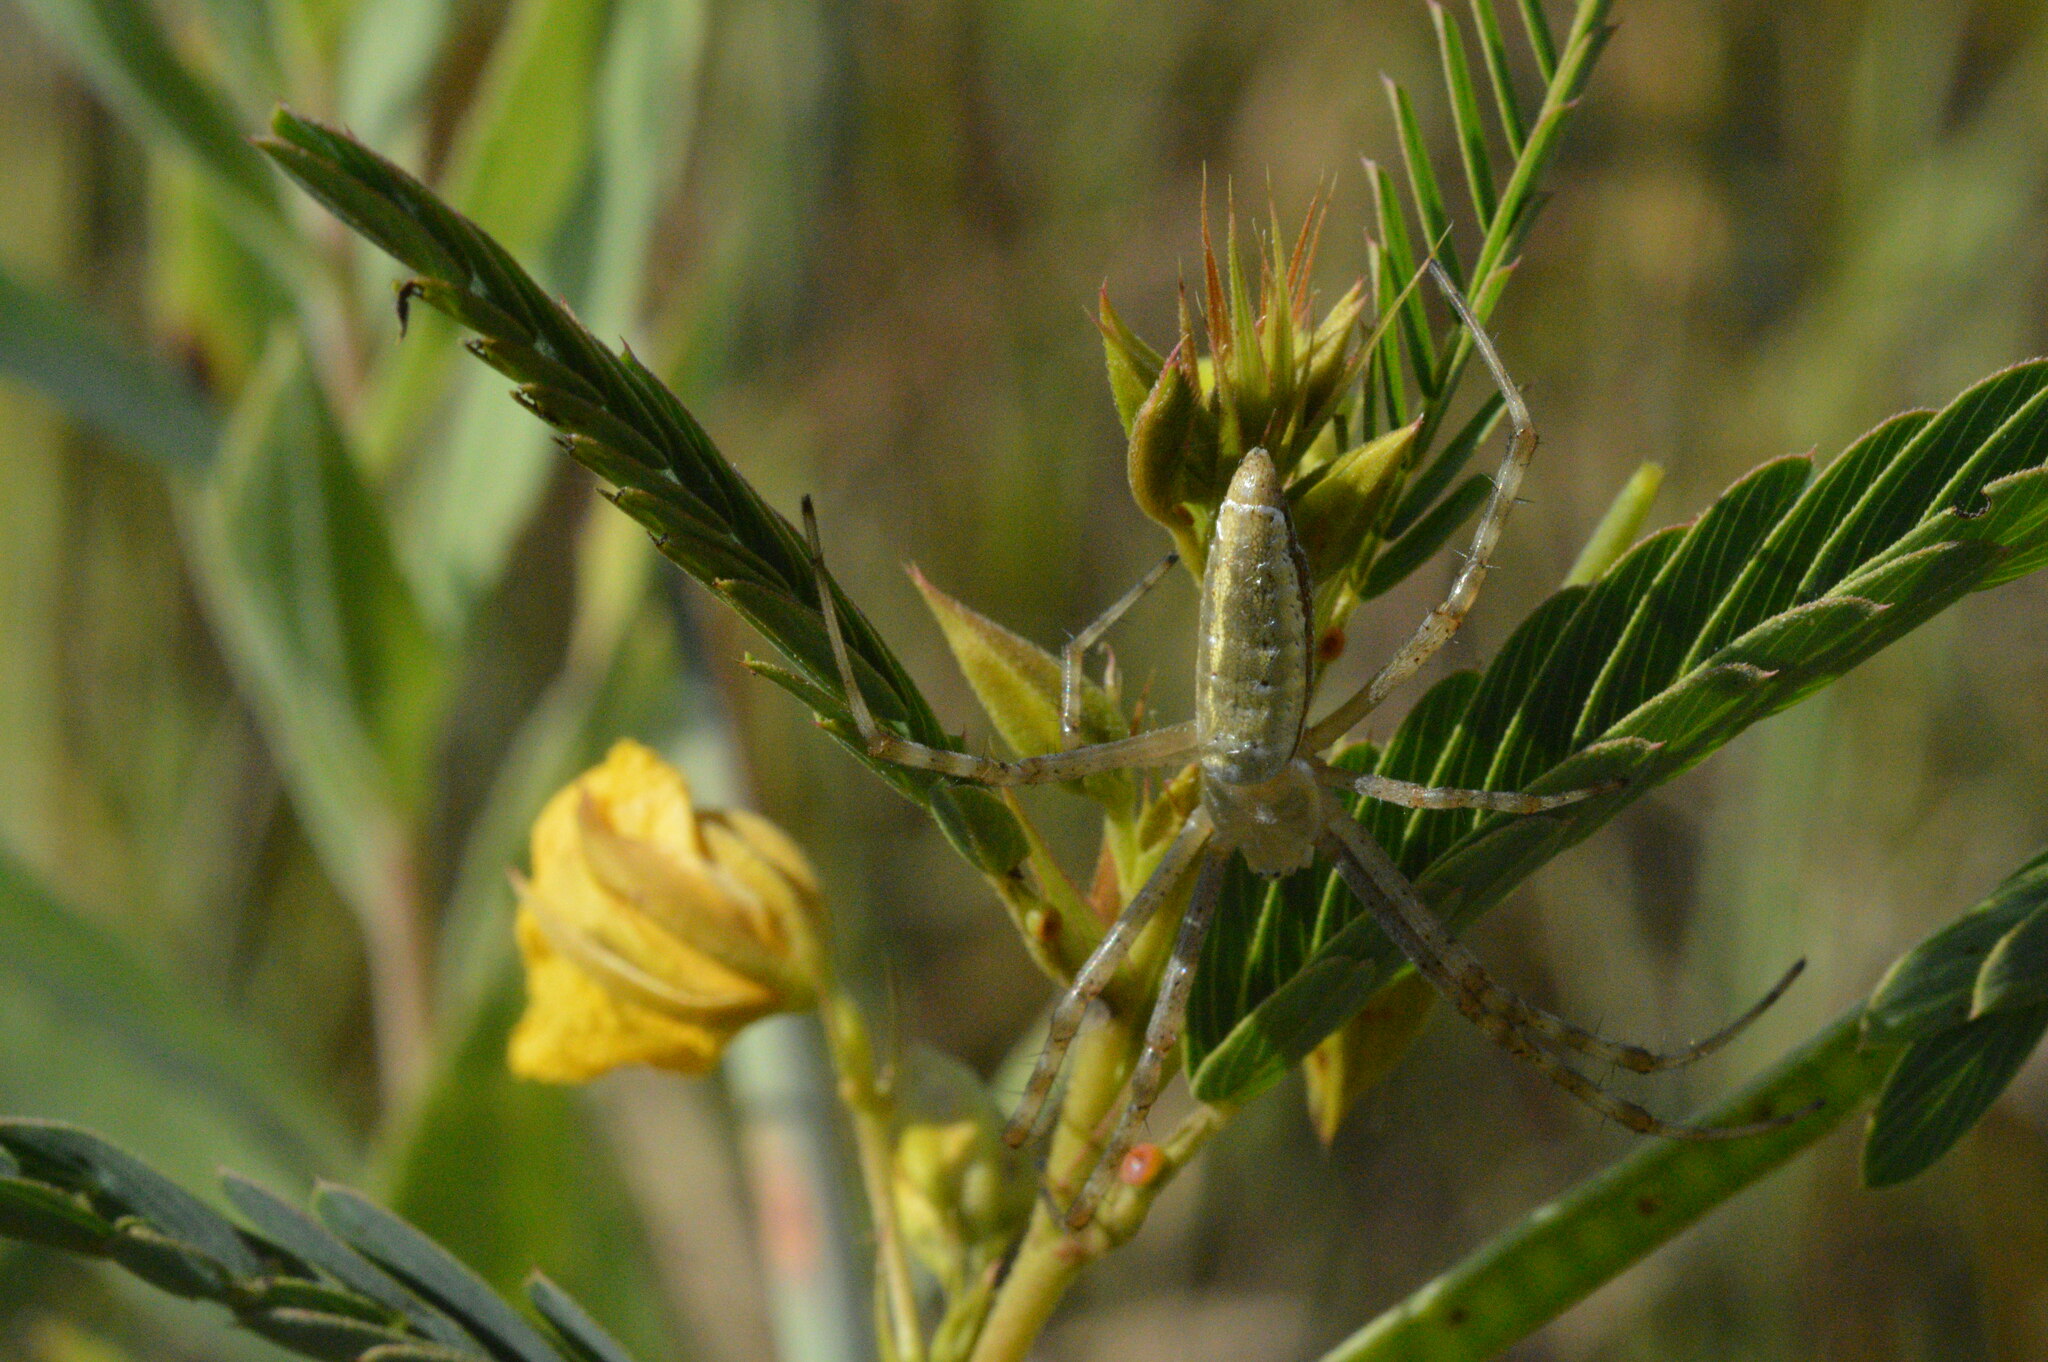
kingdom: Animalia
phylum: Arthropoda
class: Arachnida
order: Araneae
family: Araneidae
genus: Argiope
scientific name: Argiope trifasciata
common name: Banded garden spider
